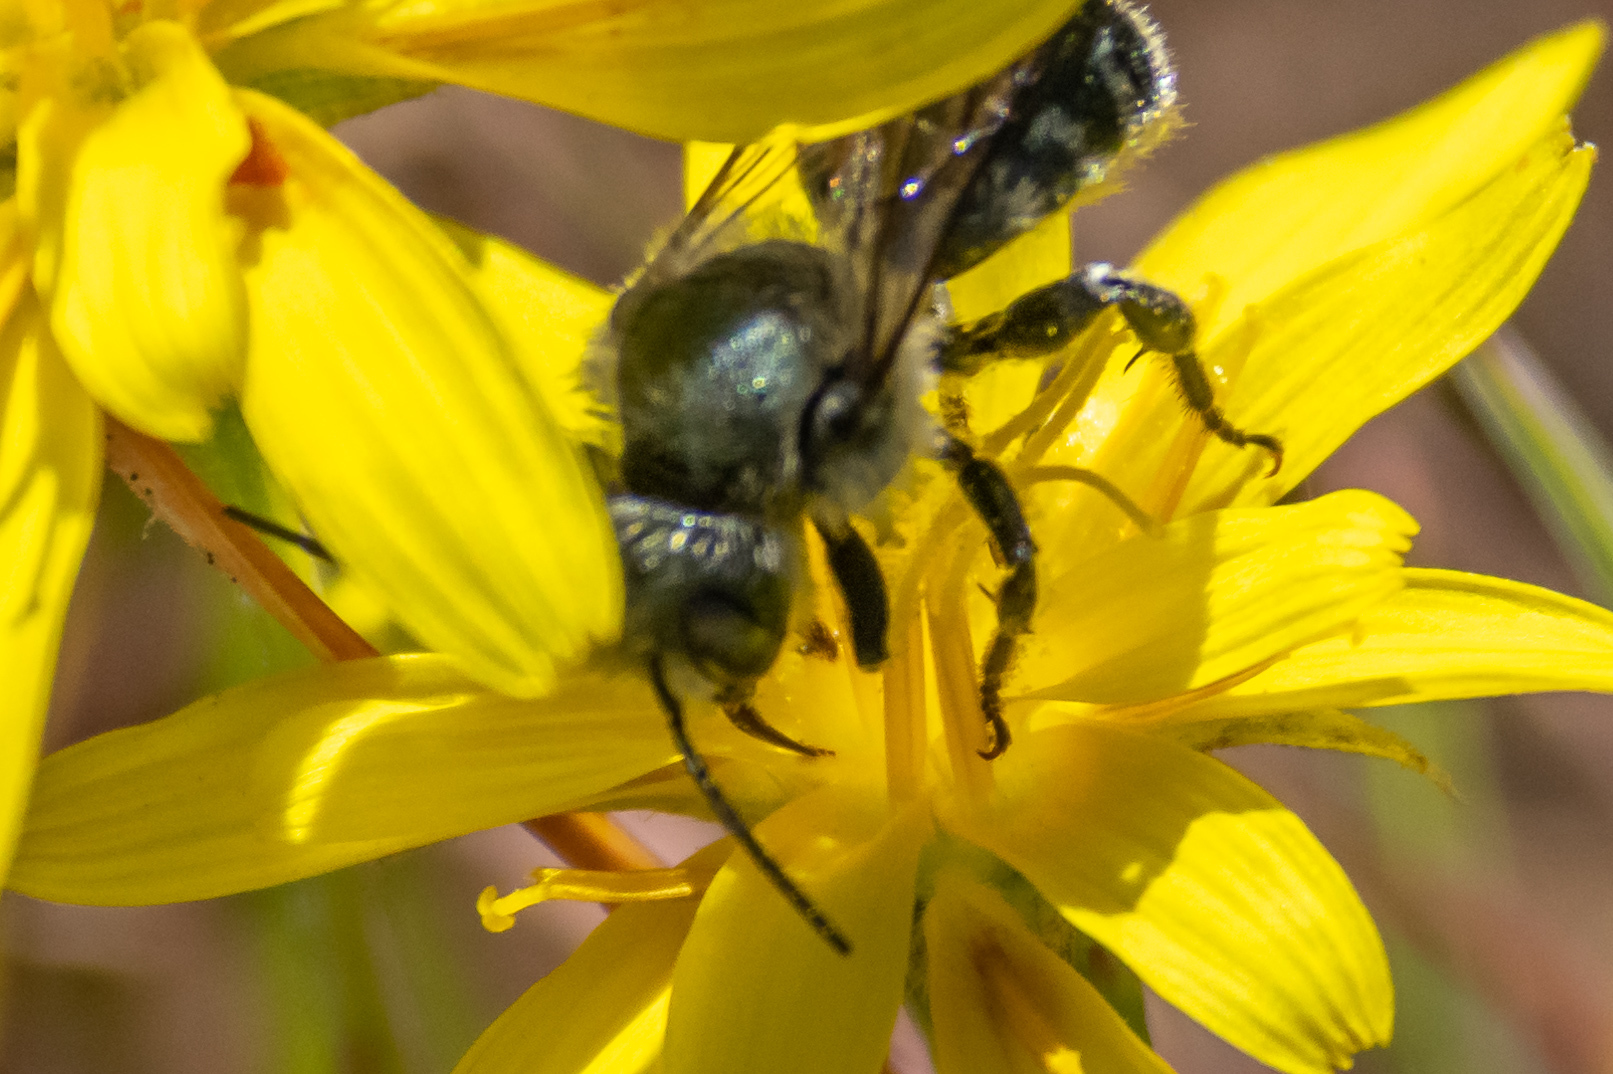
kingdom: Animalia
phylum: Arthropoda
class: Insecta
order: Hymenoptera
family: Megachilidae
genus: Osmia
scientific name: Osmia
